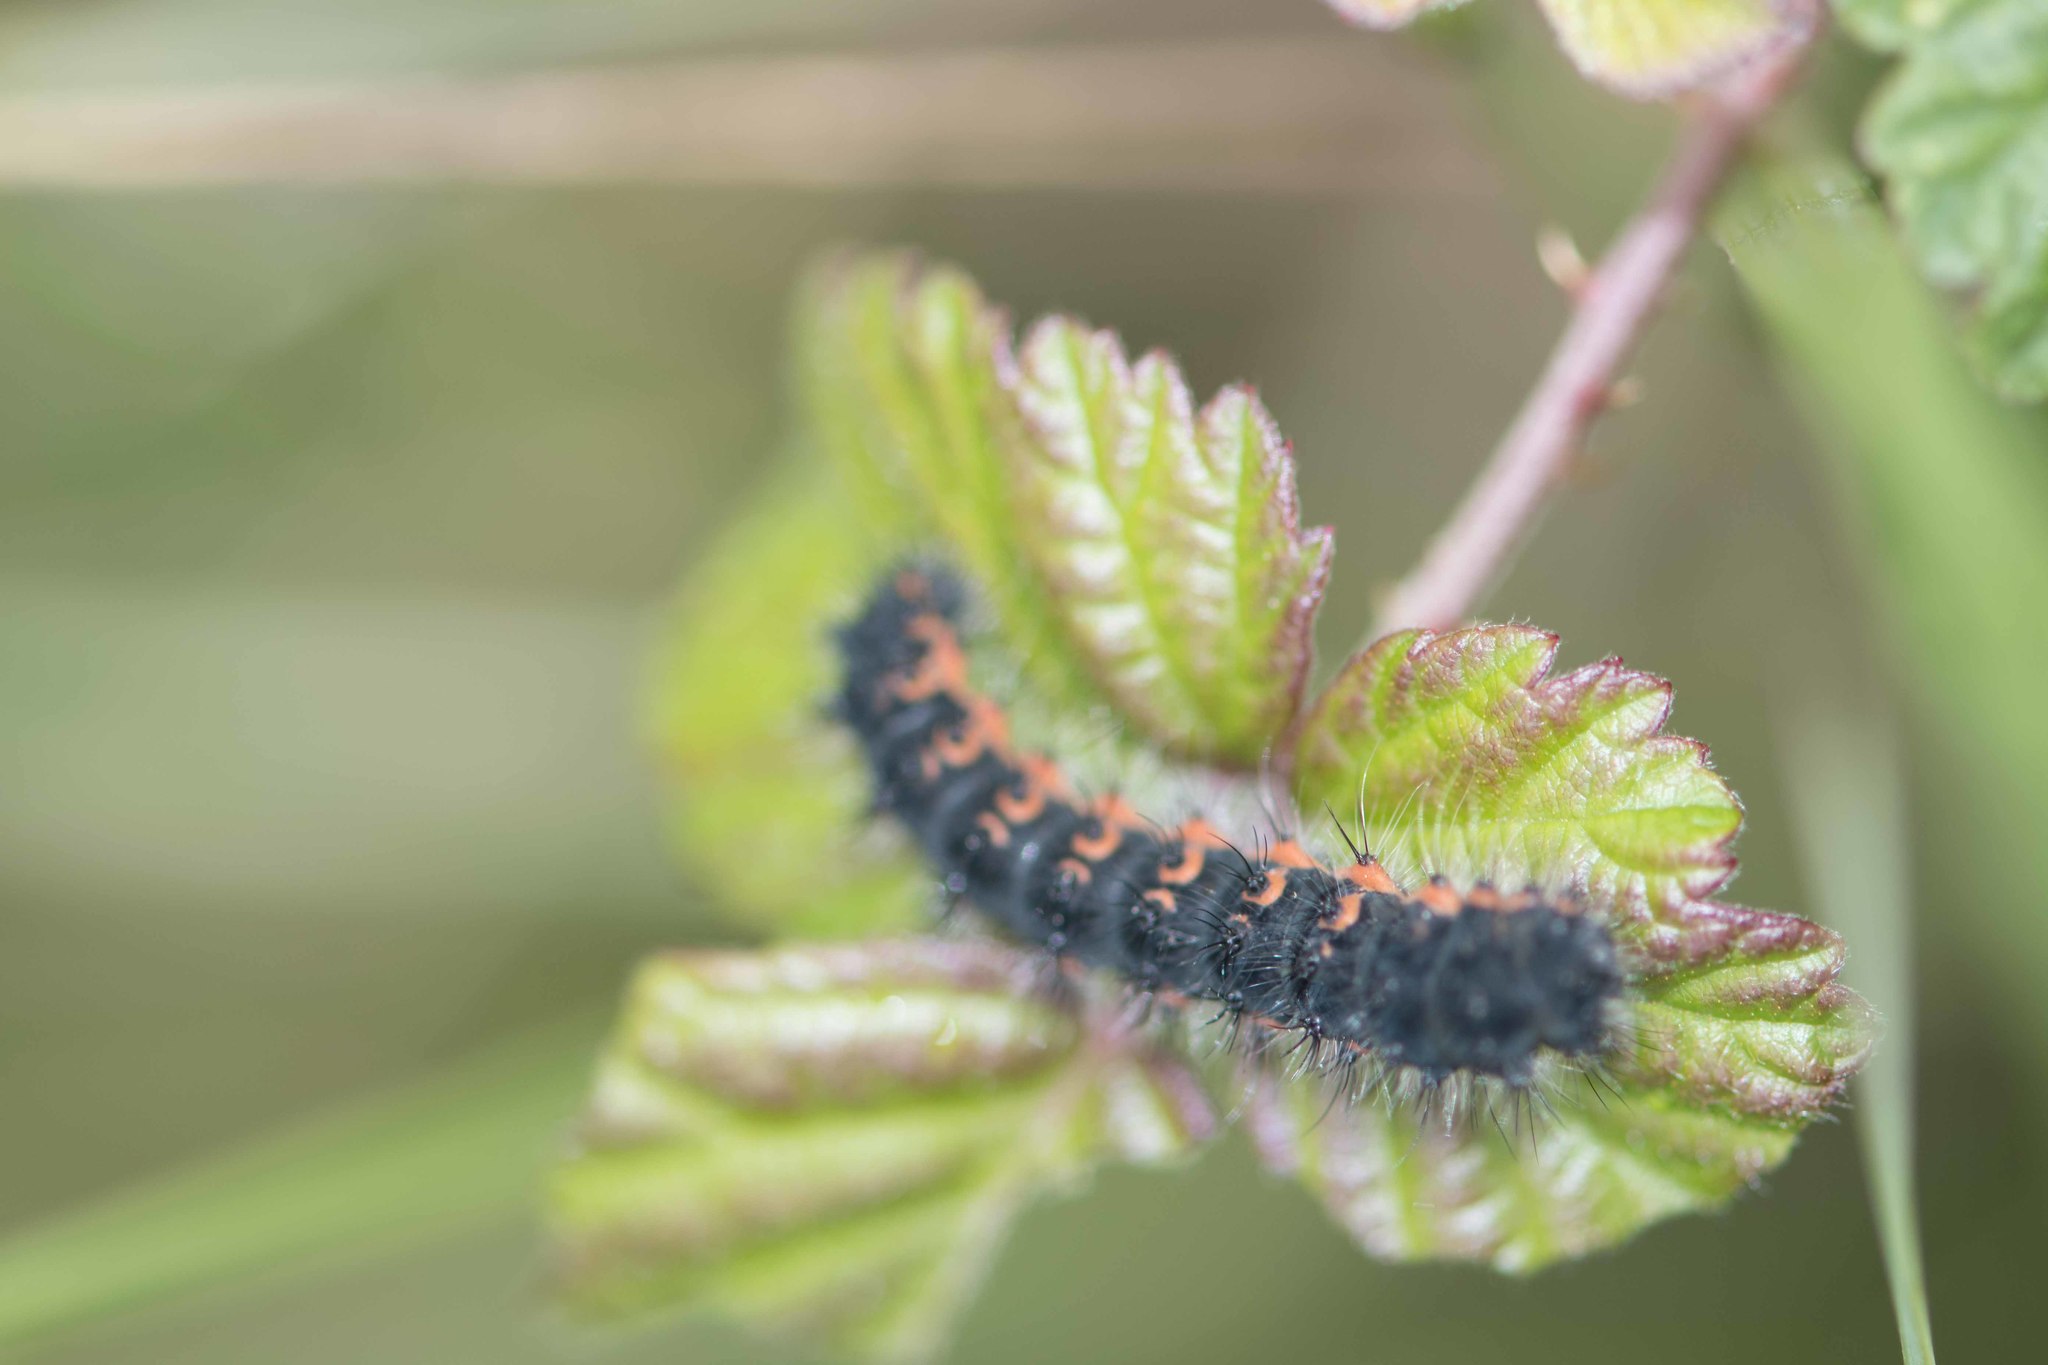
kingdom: Animalia
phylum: Arthropoda
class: Insecta
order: Lepidoptera
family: Saturniidae
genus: Saturnia
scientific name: Saturnia pavonia
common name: Emperor moth
